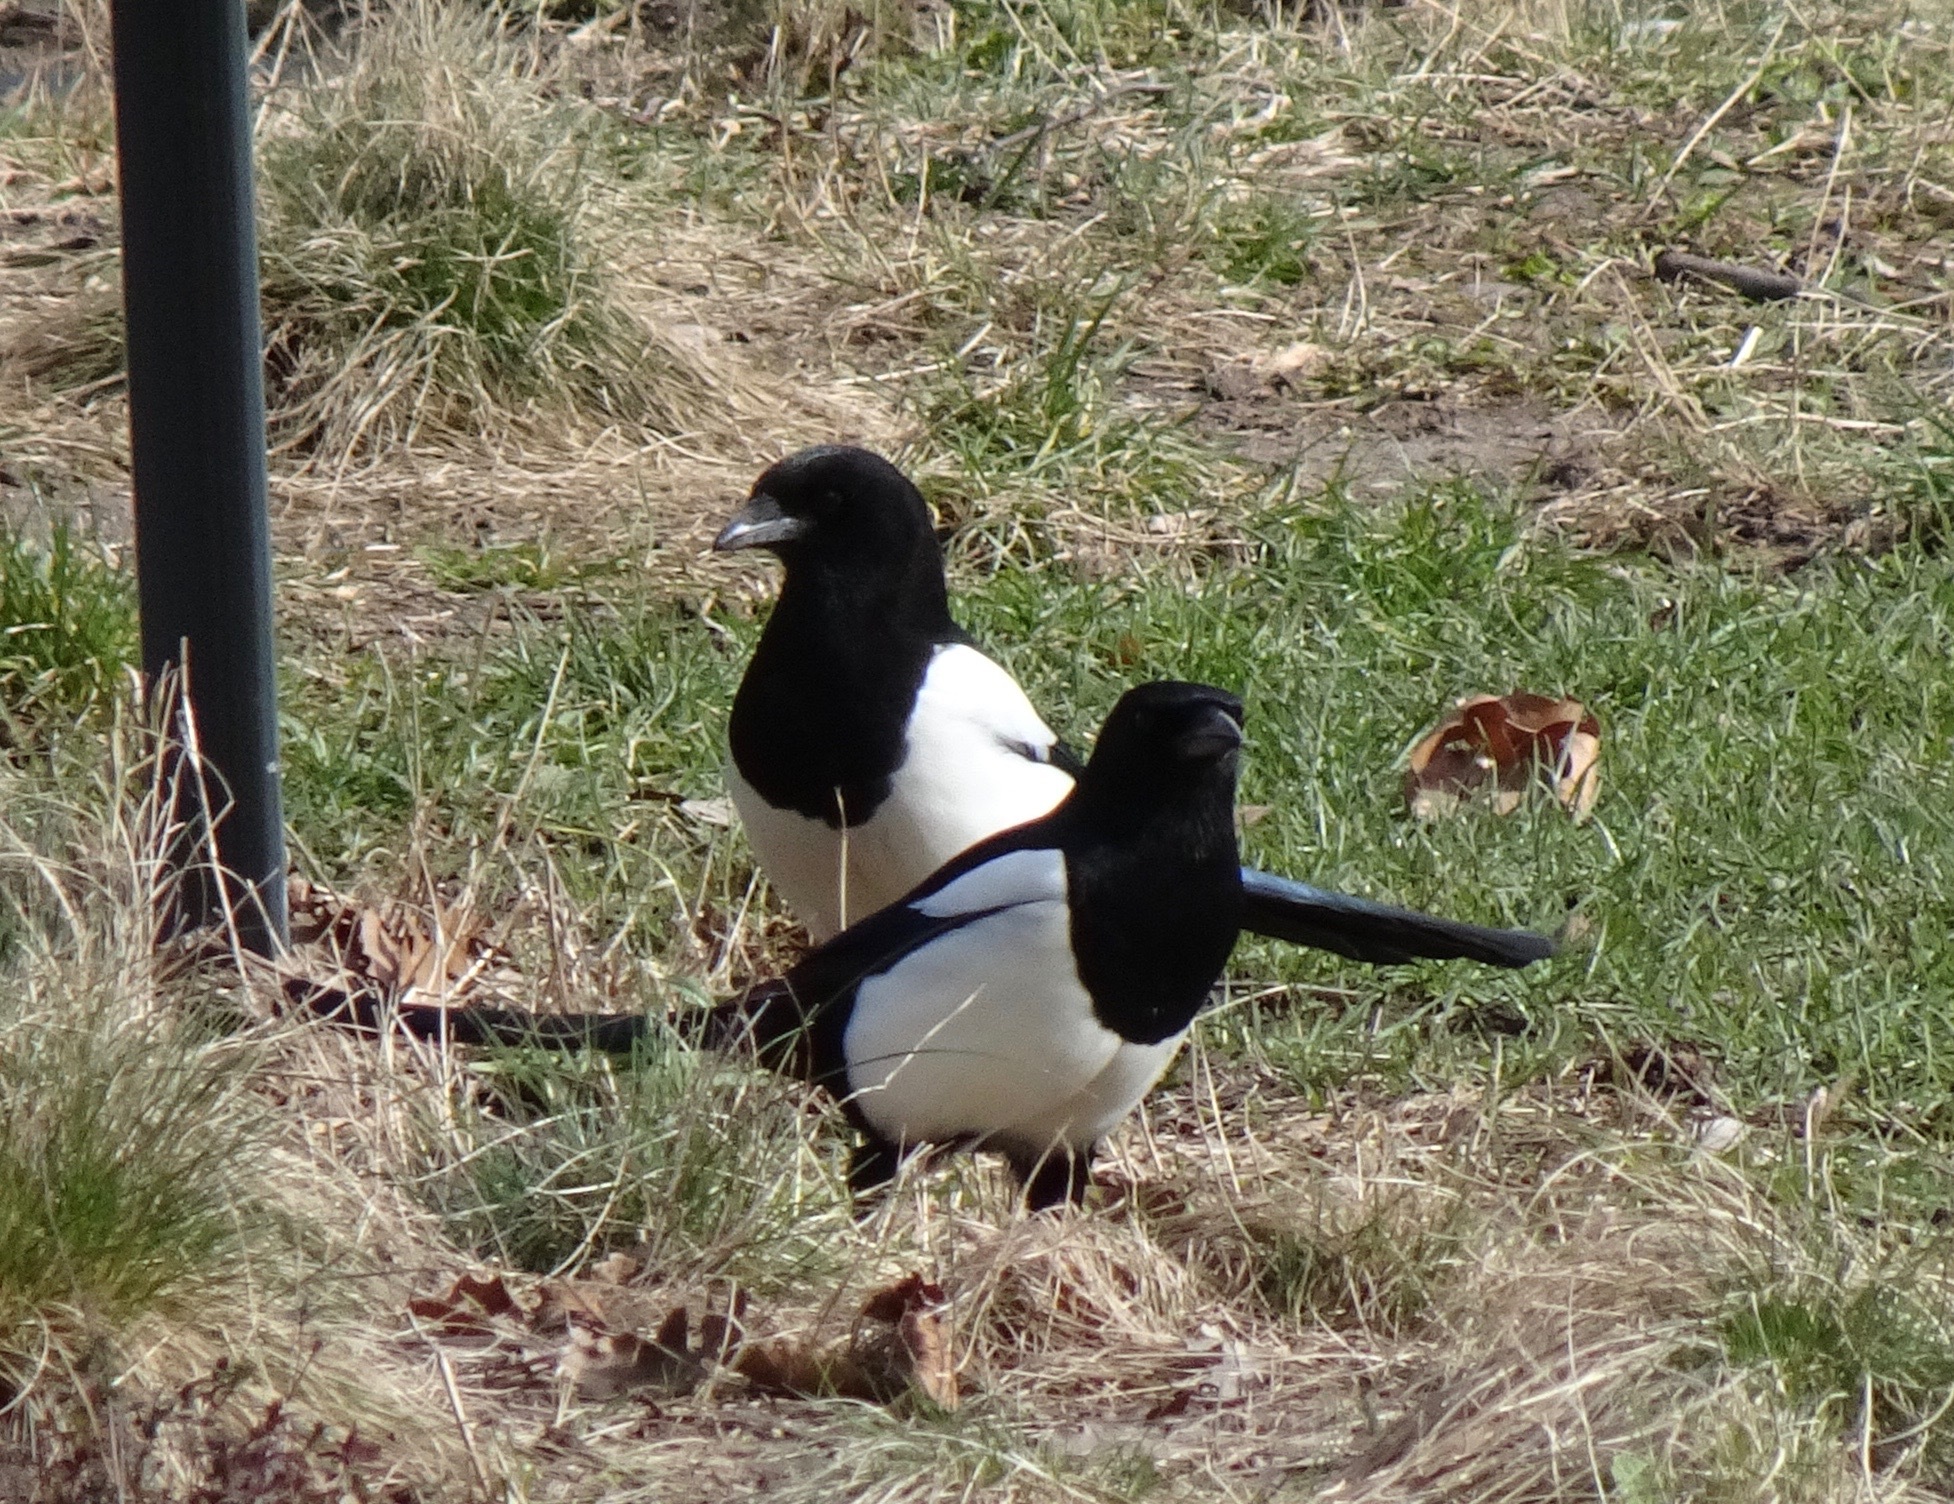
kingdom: Animalia
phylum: Chordata
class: Aves
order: Passeriformes
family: Corvidae
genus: Pica
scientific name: Pica pica
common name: Eurasian magpie
